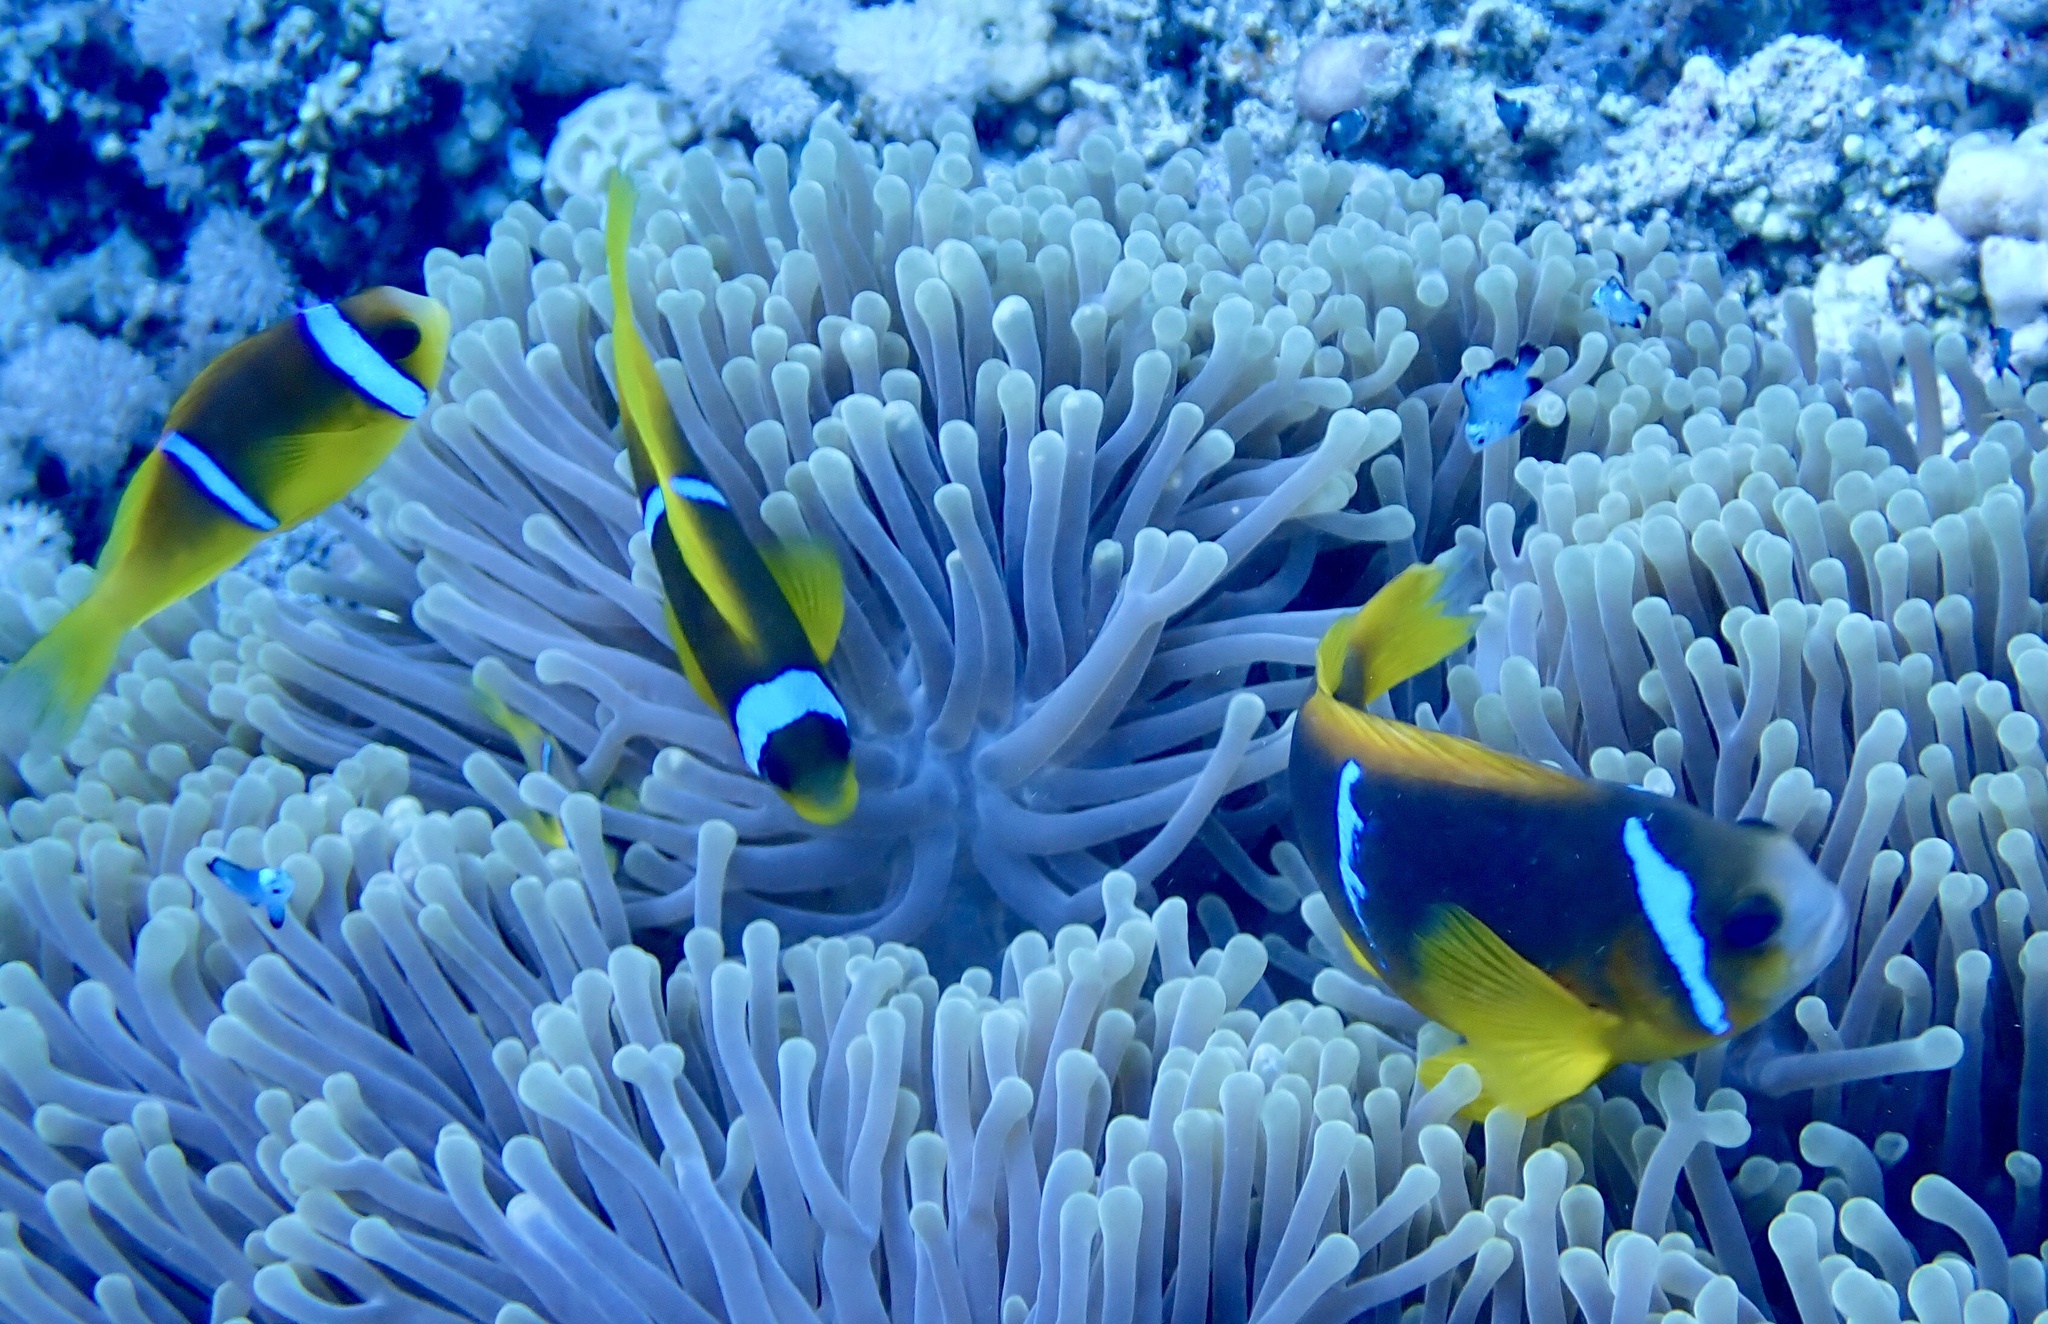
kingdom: Animalia
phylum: Chordata
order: Perciformes
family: Pomacentridae
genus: Amphiprion
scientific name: Amphiprion bicinctus
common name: Two-banded anemonefish
